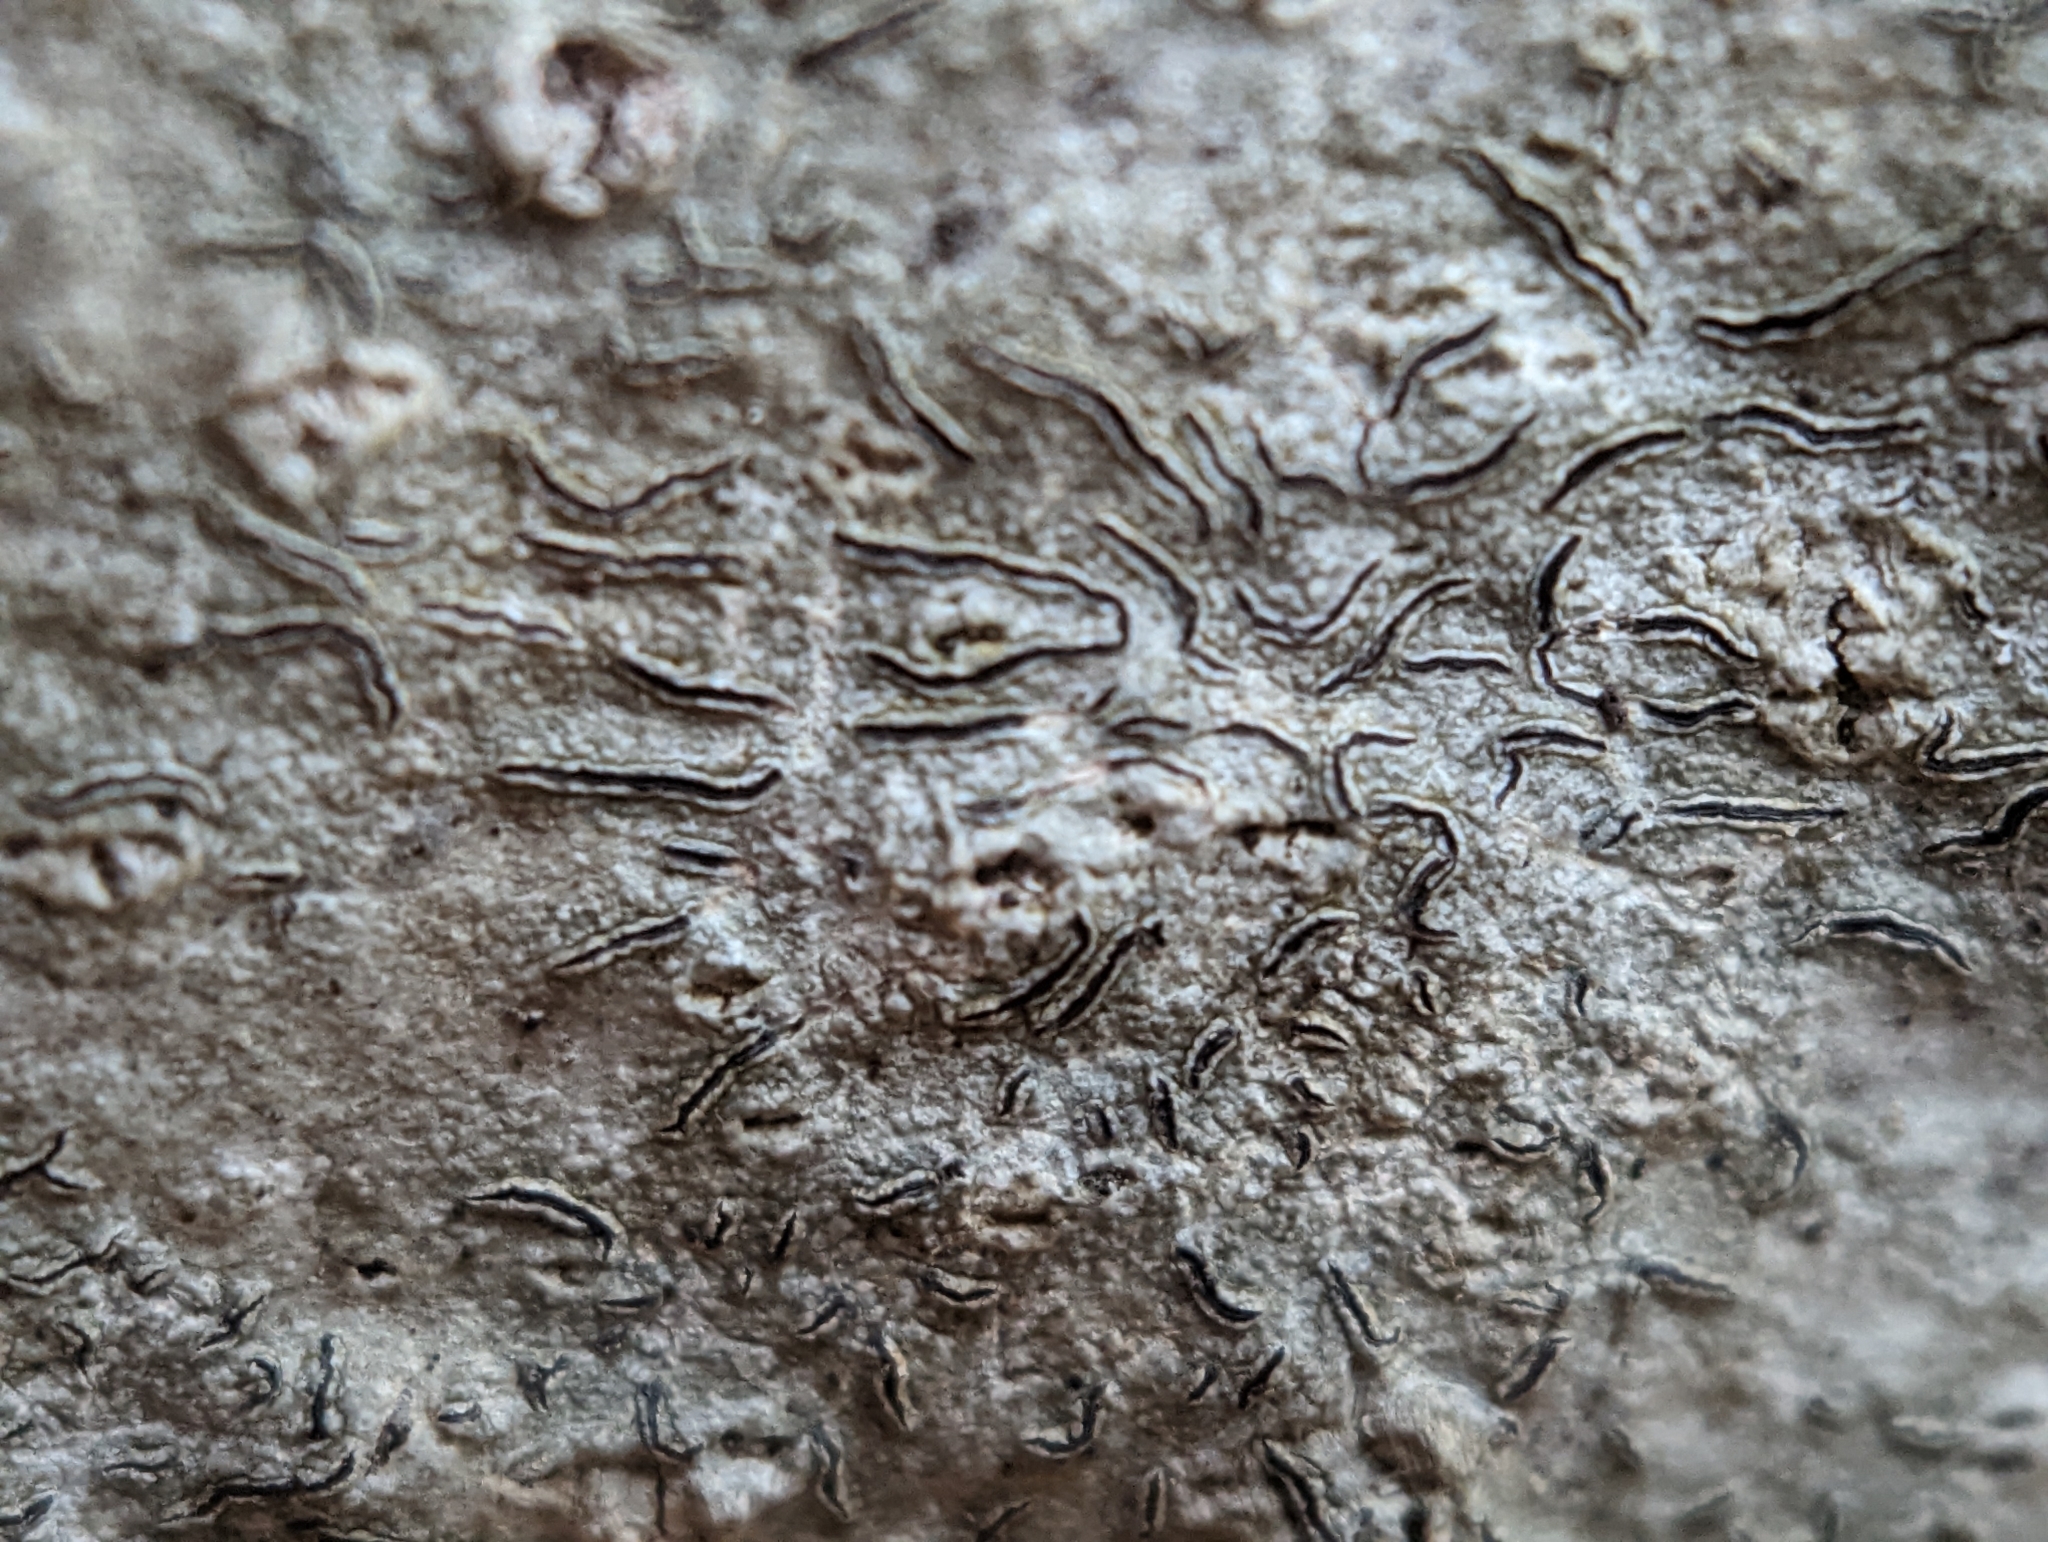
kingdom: Fungi
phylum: Ascomycota
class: Lecanoromycetes
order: Ostropales
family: Graphidaceae
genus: Graphis
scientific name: Graphis scripta
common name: Script lichen
